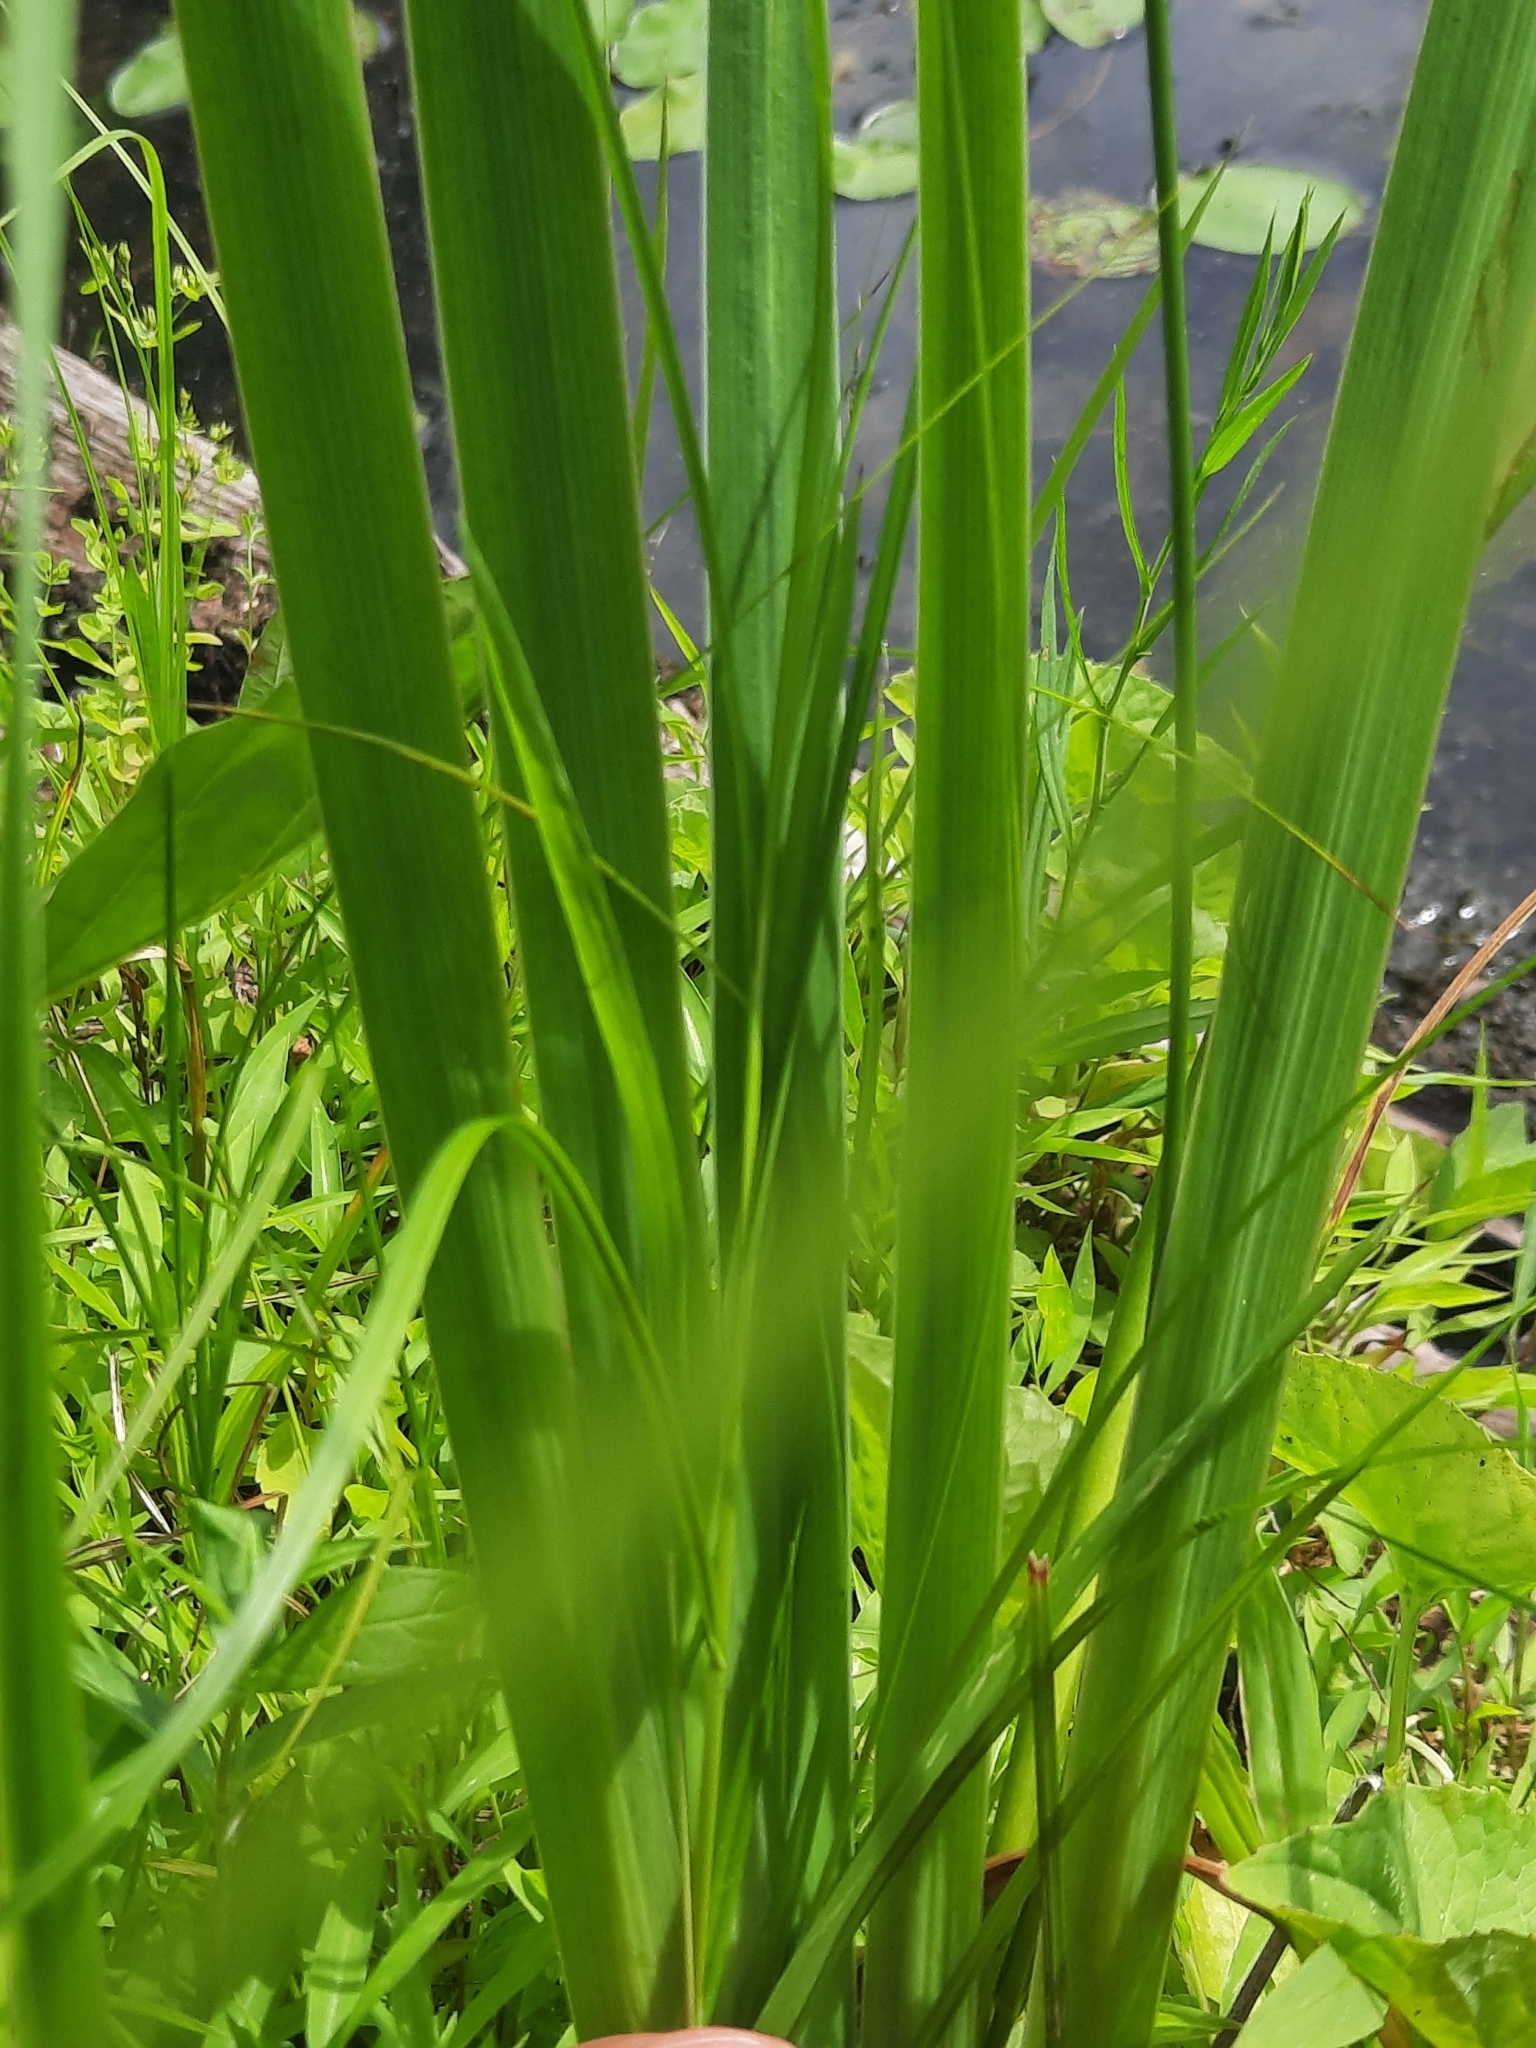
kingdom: Plantae
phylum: Tracheophyta
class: Liliopsida
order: Asparagales
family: Iridaceae
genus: Iris
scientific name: Iris versicolor
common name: Purple iris
